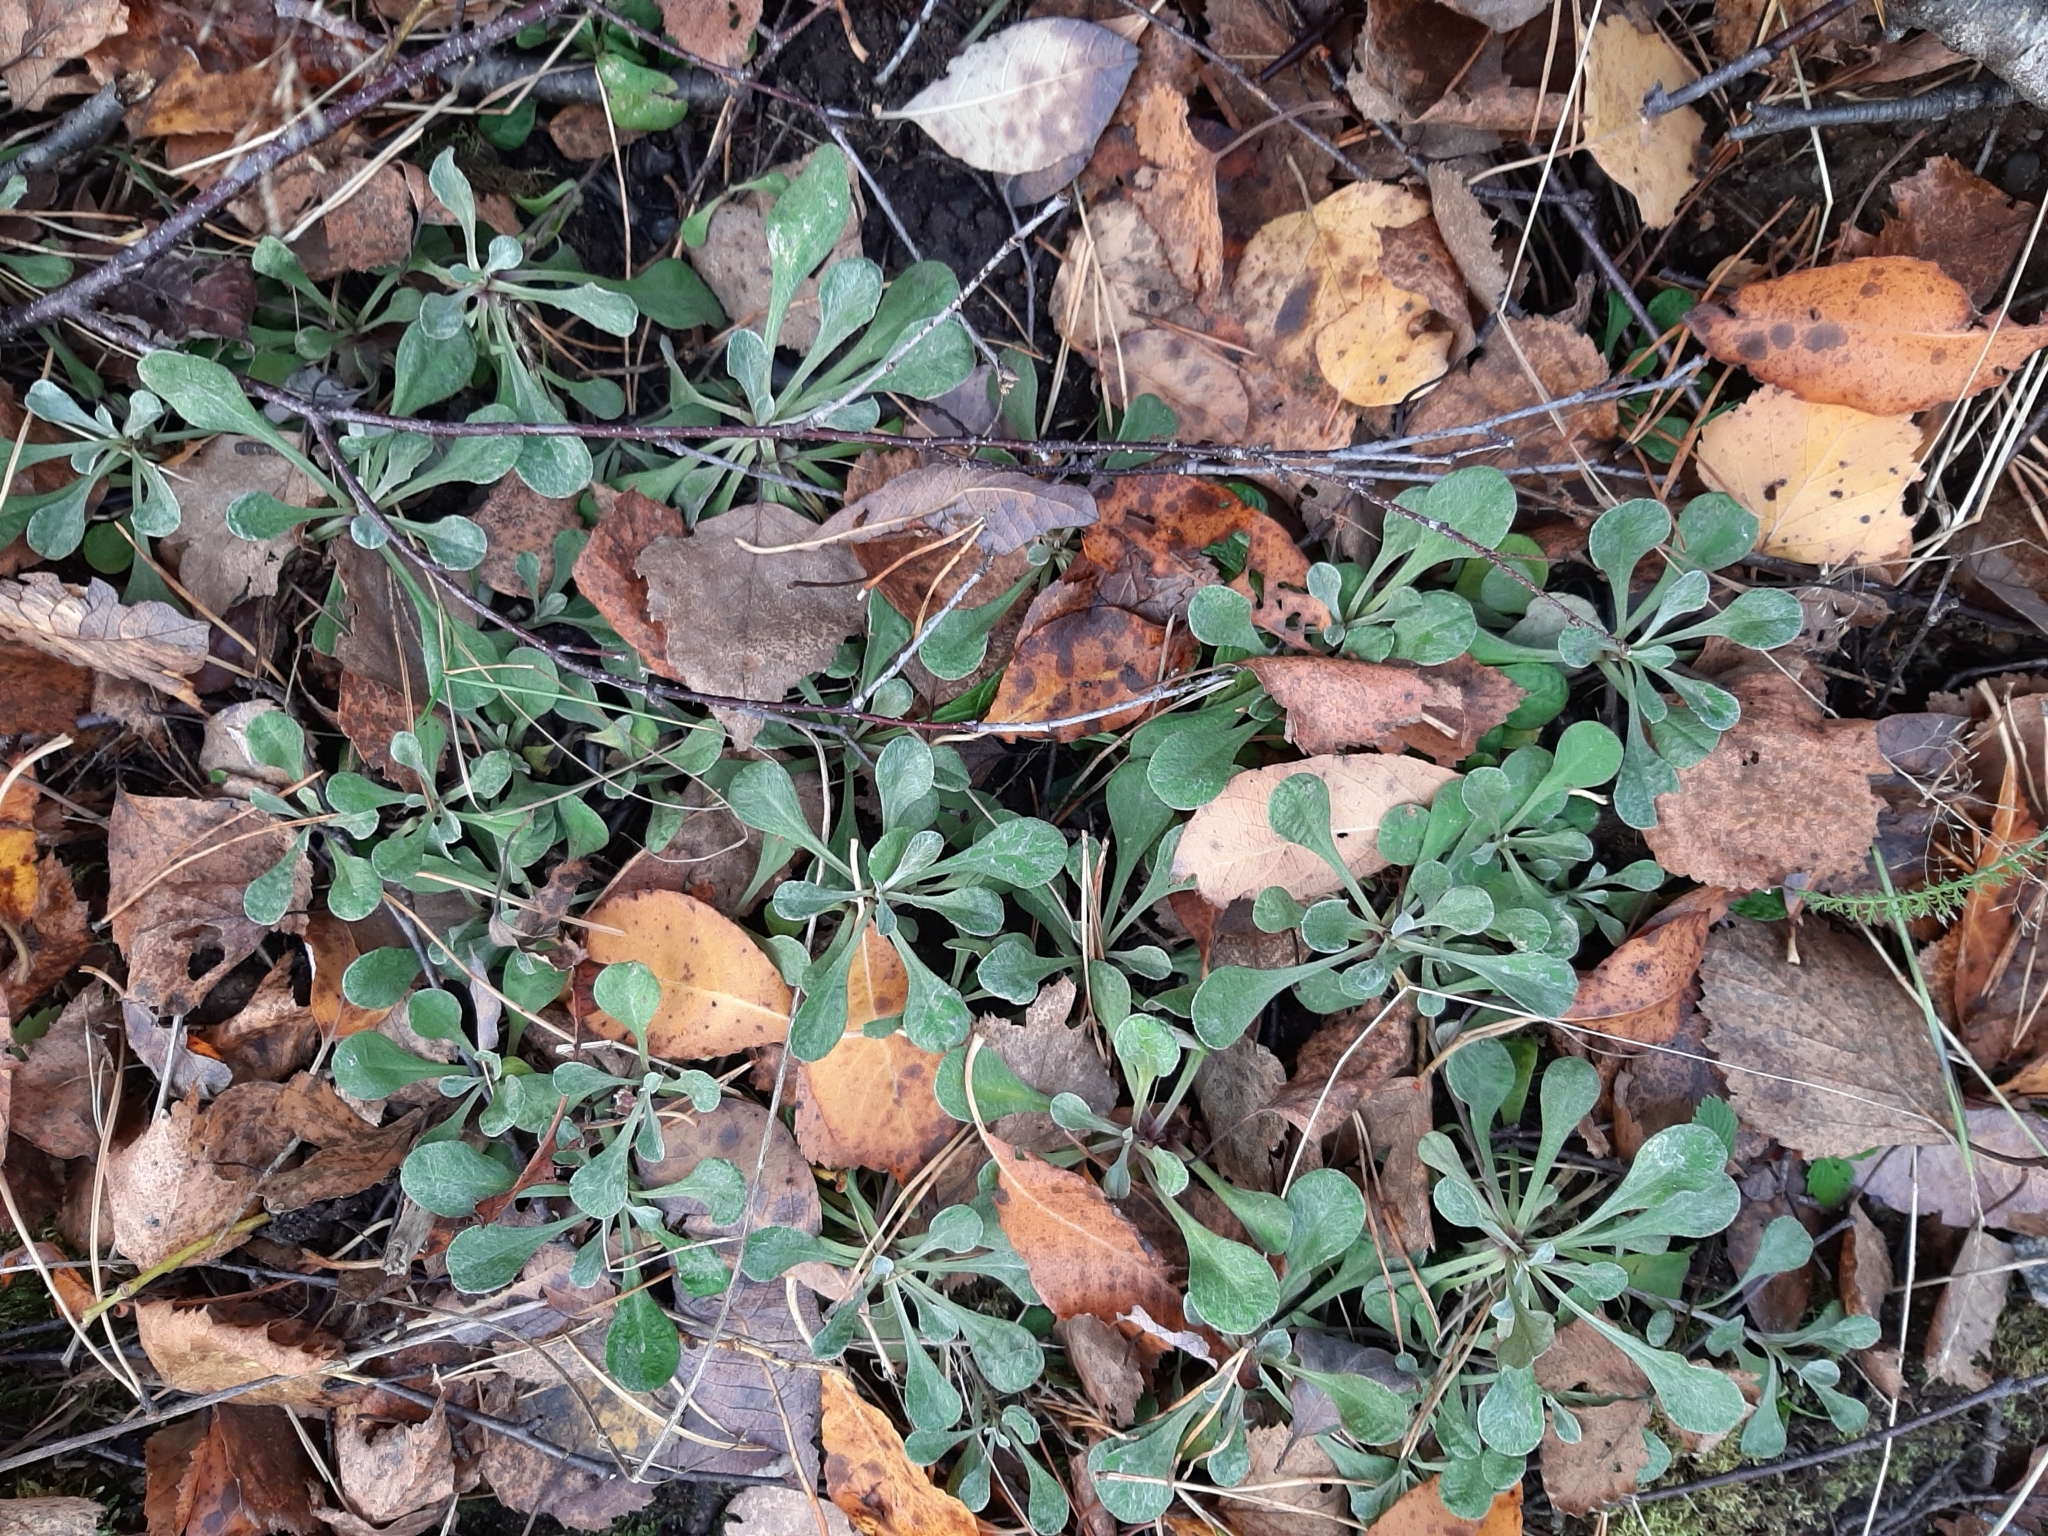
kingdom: Plantae
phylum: Tracheophyta
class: Magnoliopsida
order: Asterales
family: Asteraceae
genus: Antennaria
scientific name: Antennaria dioica
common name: Mountain everlasting
